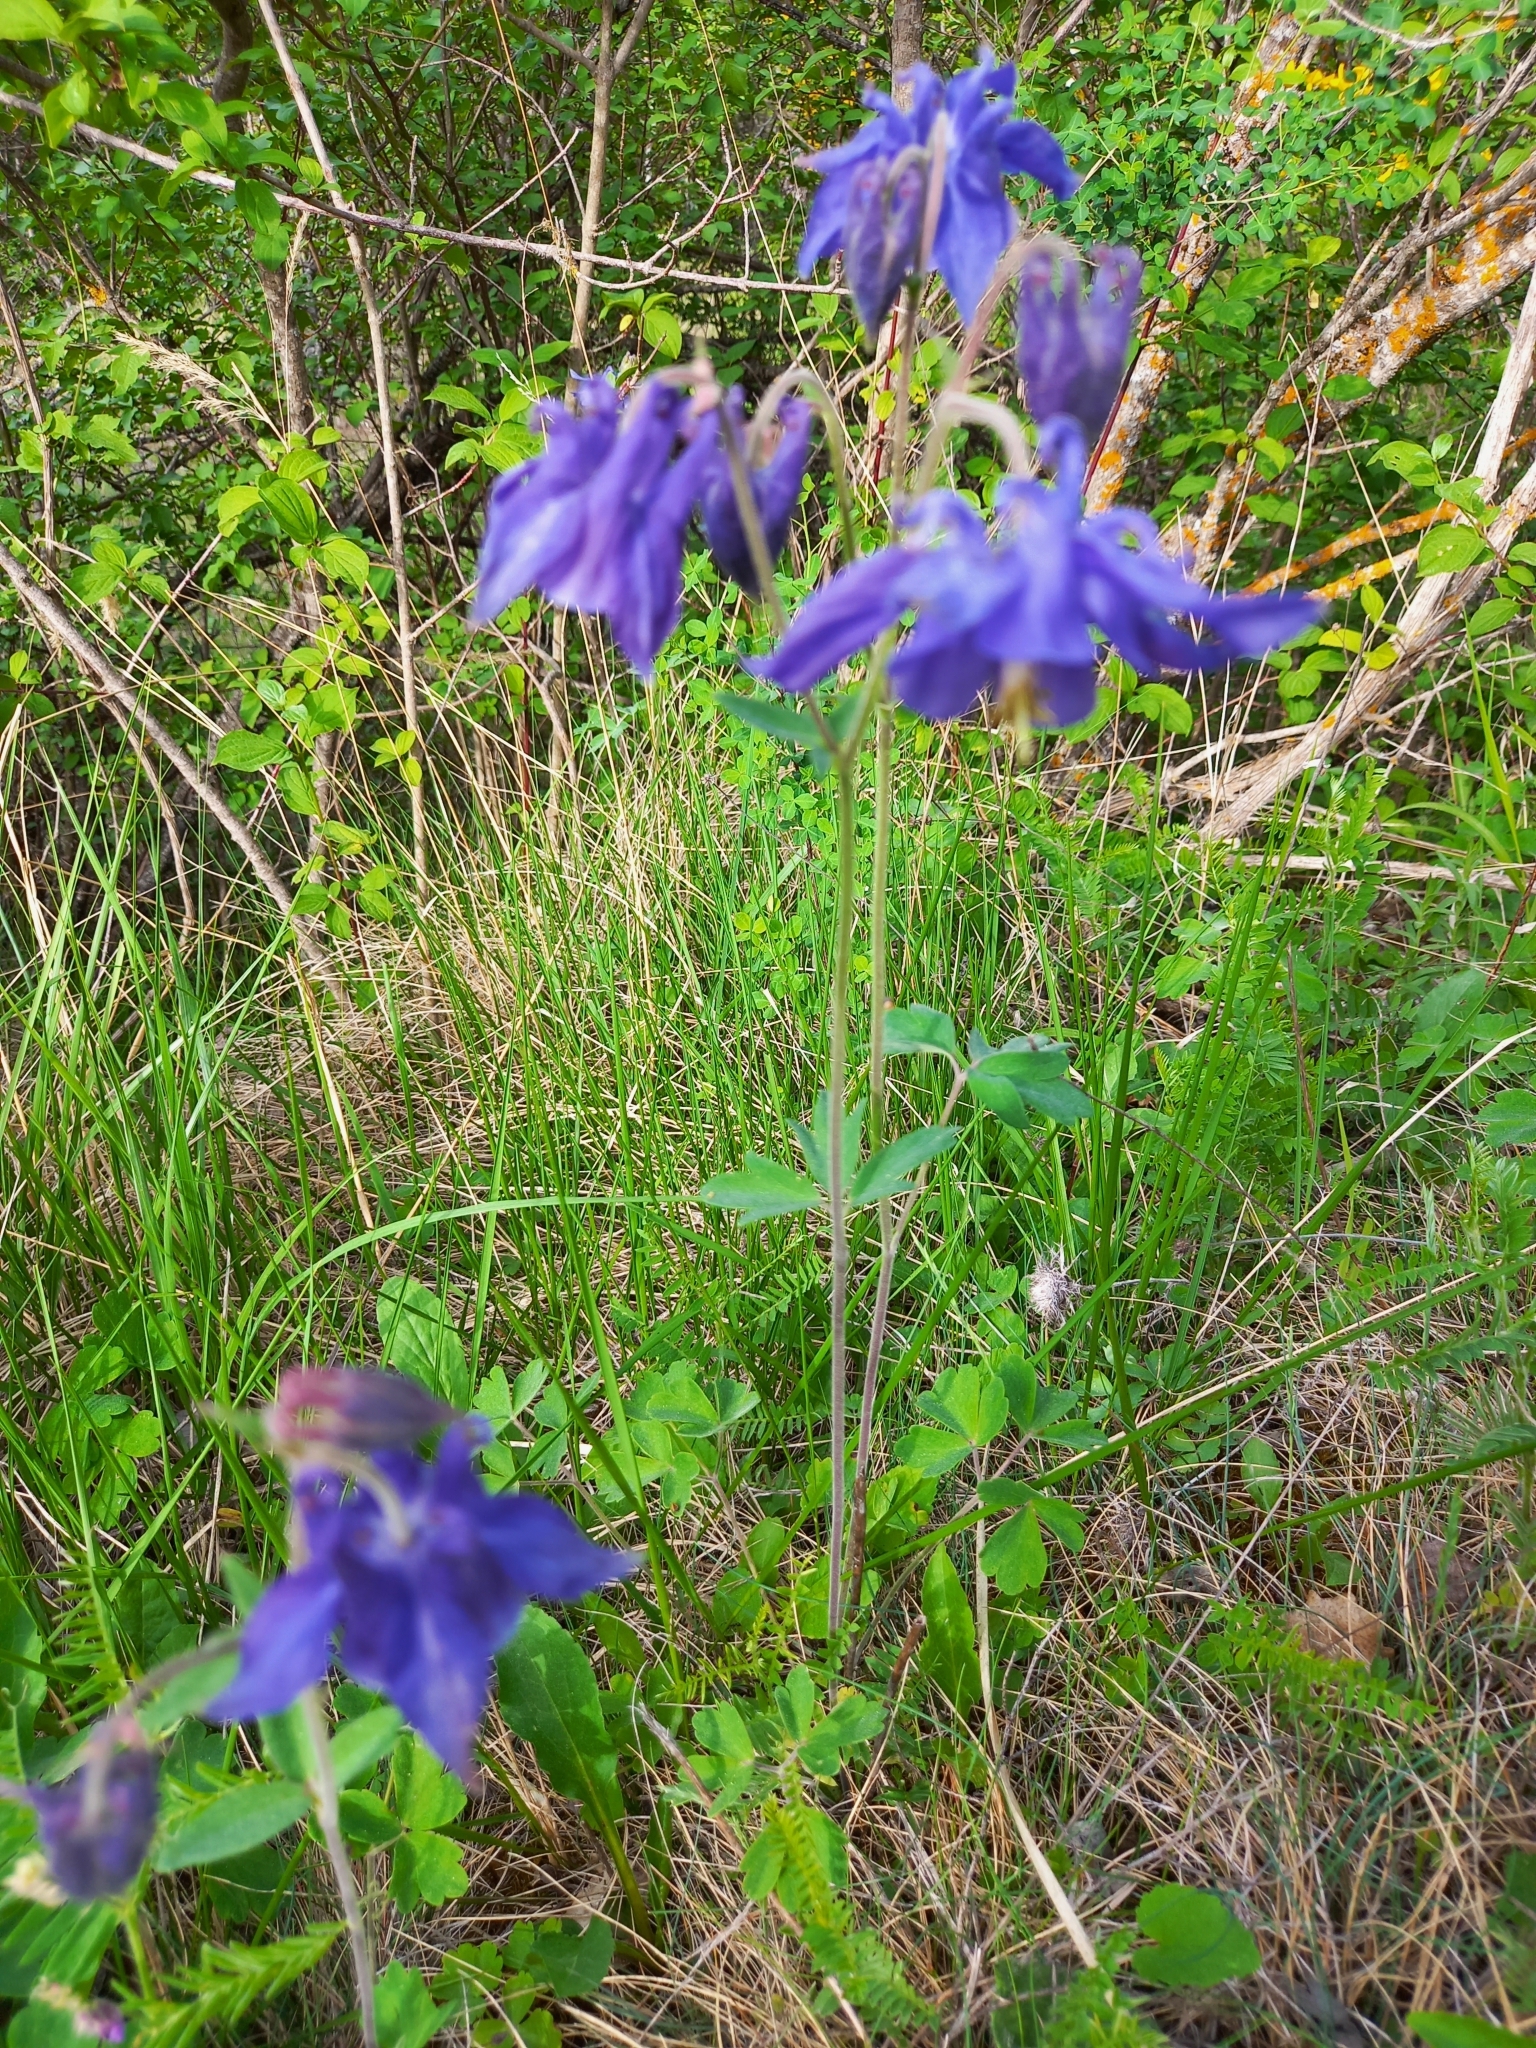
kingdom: Plantae
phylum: Tracheophyta
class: Magnoliopsida
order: Ranunculales
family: Ranunculaceae
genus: Aquilegia
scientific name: Aquilegia vulgaris
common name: Columbine
